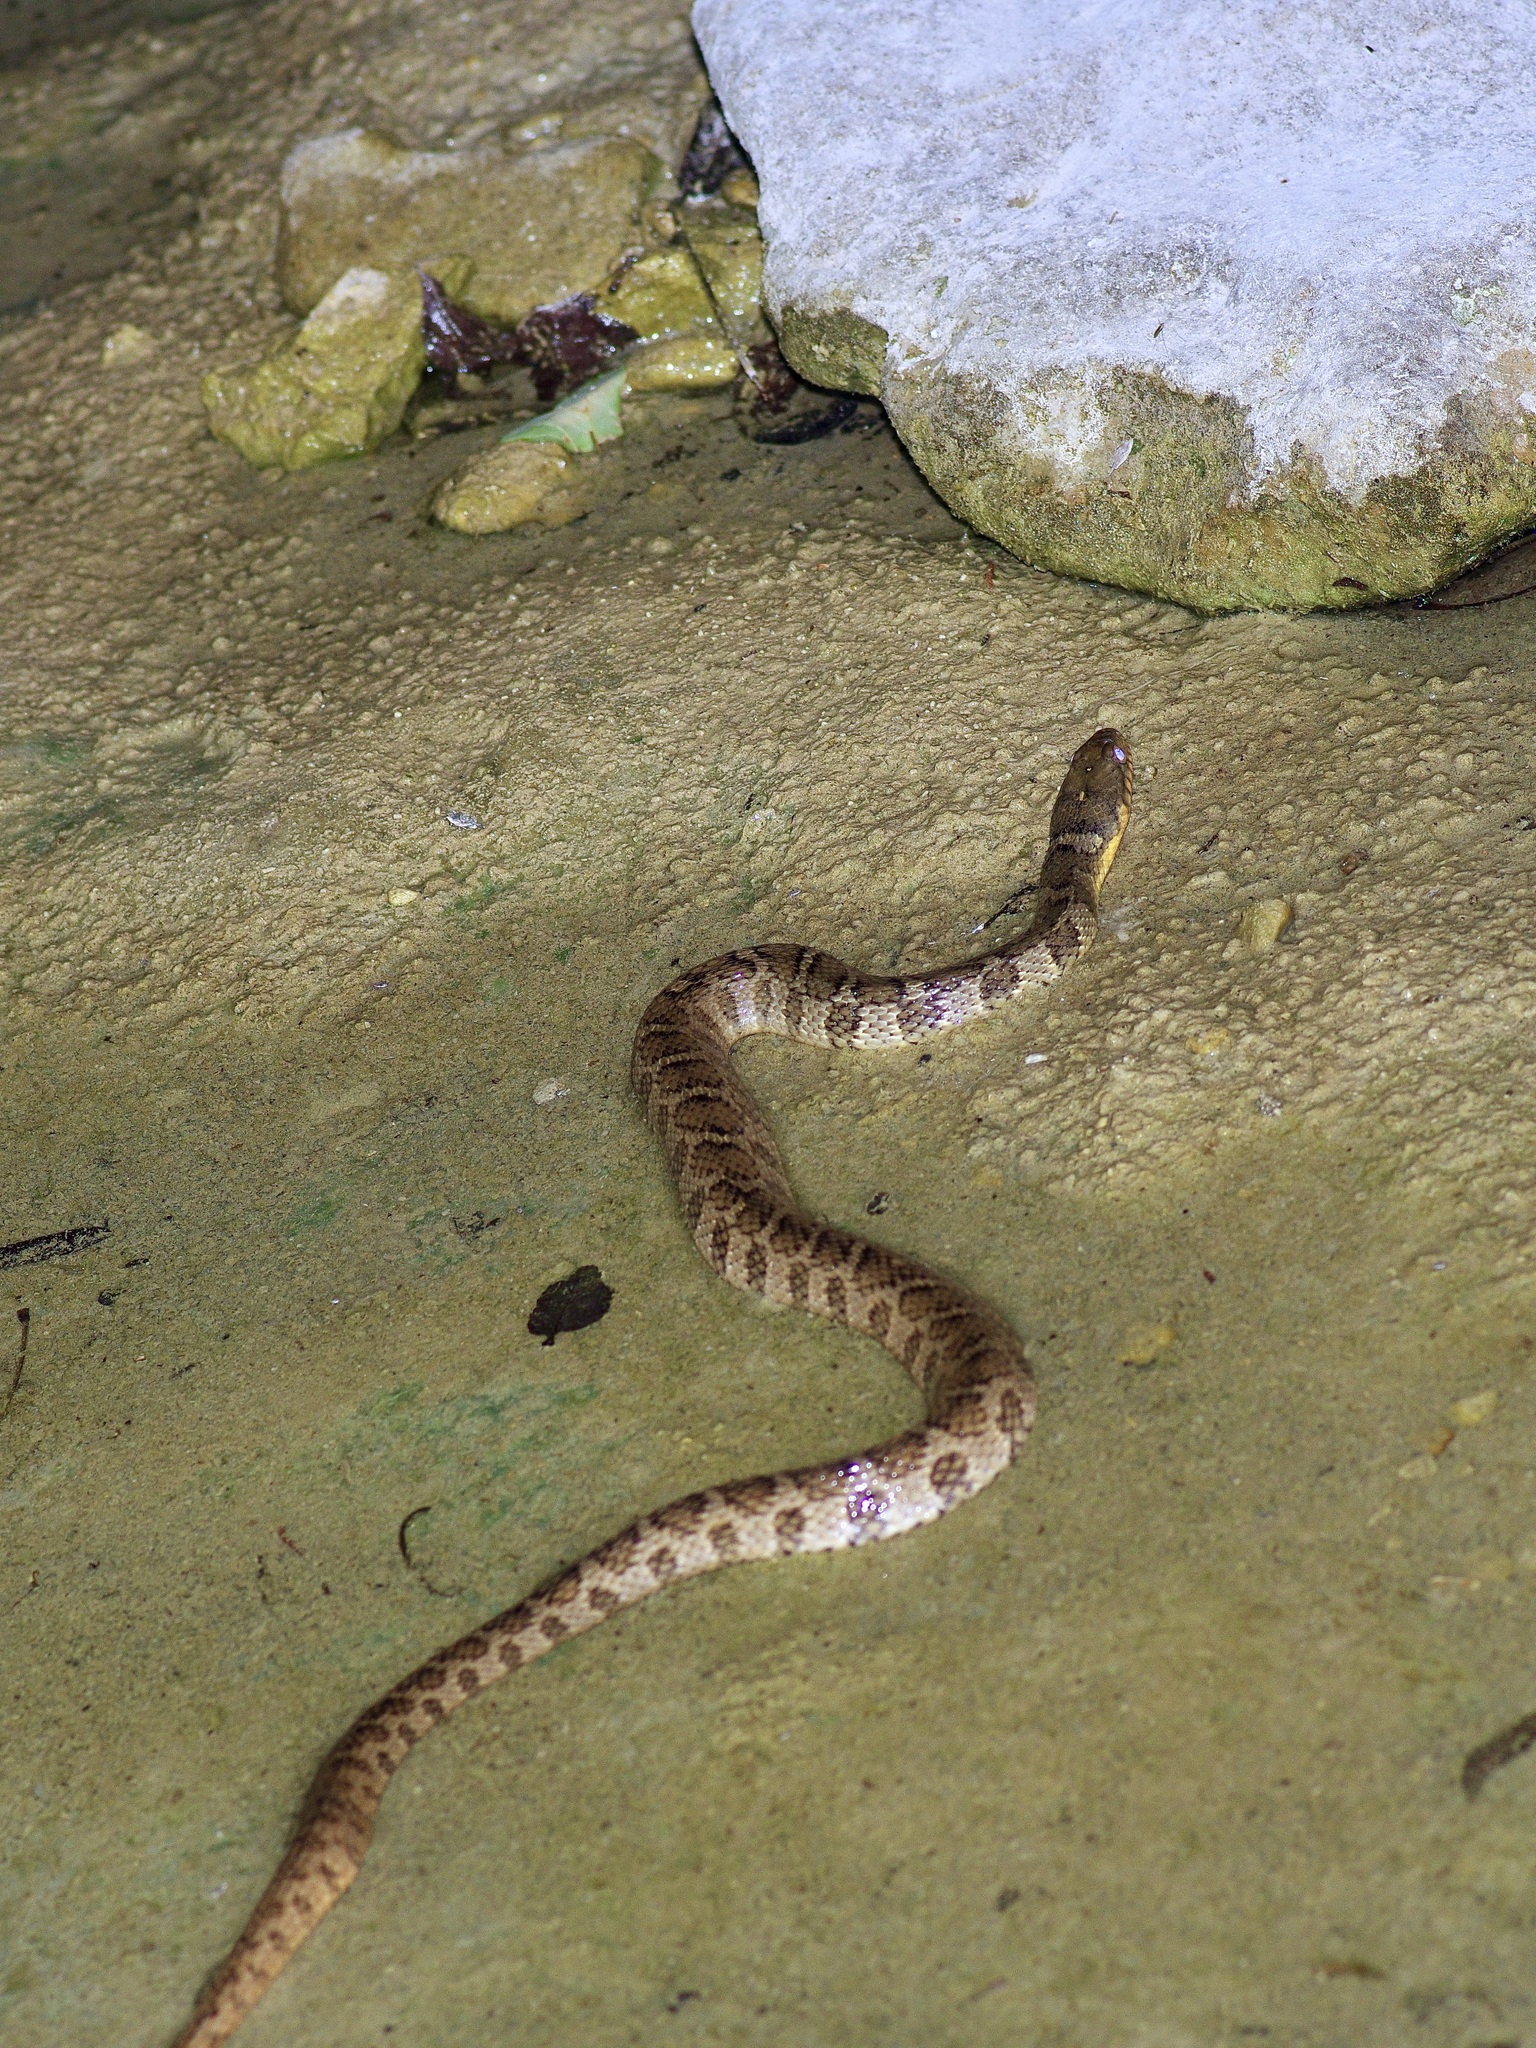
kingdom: Animalia
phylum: Chordata
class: Squamata
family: Colubridae
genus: Nerodia
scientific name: Nerodia erythrogaster
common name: Plainbelly water snake
